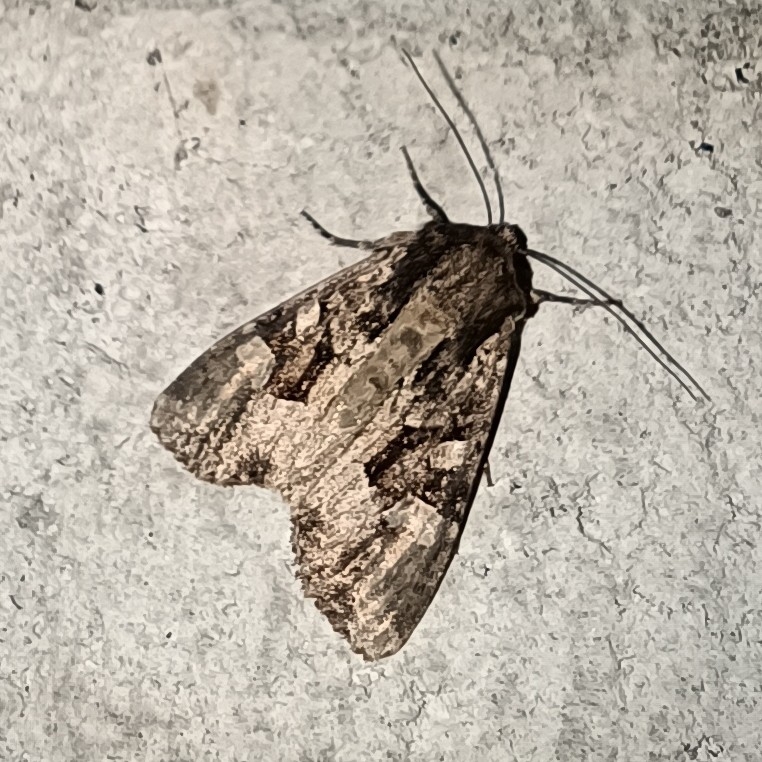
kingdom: Animalia
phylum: Arthropoda
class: Insecta
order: Lepidoptera
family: Noctuidae
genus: Apamea
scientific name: Apamea remissa
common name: Dusky brocade
